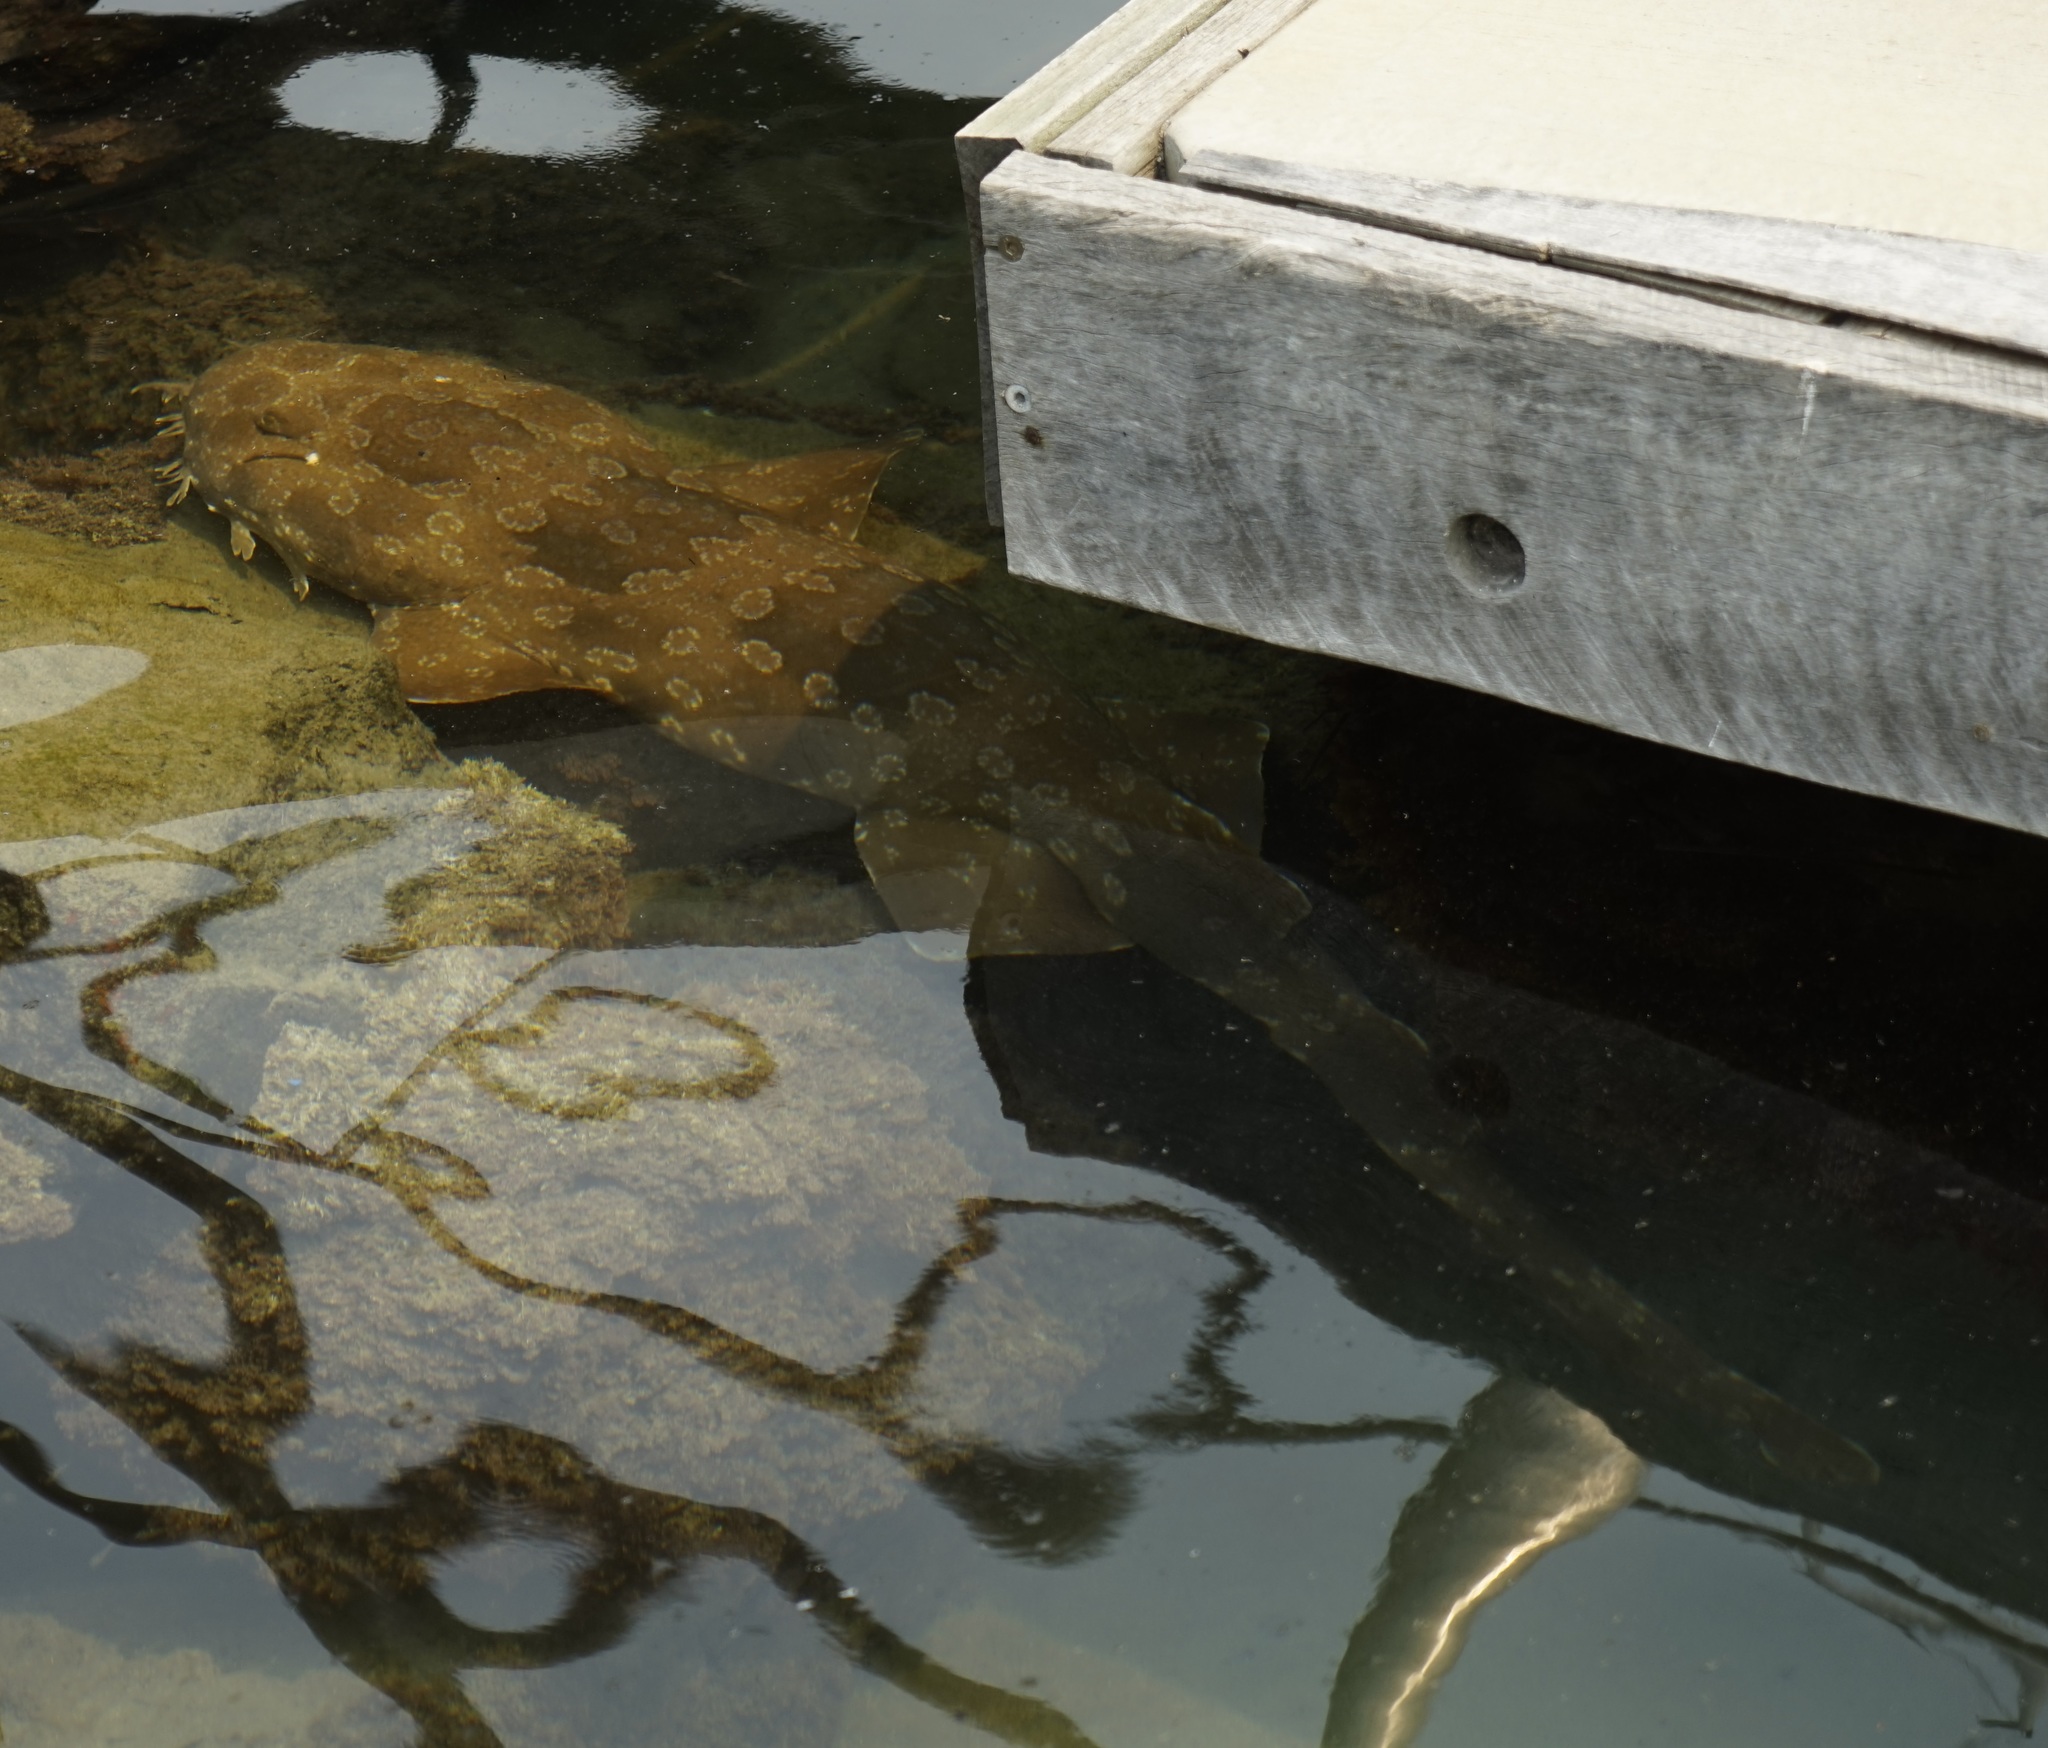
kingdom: Animalia
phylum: Chordata
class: Elasmobranchii
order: Orectolobiformes
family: Orectolobidae
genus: Orectolobus
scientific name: Orectolobus maculatus
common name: Spotted wobbegong
